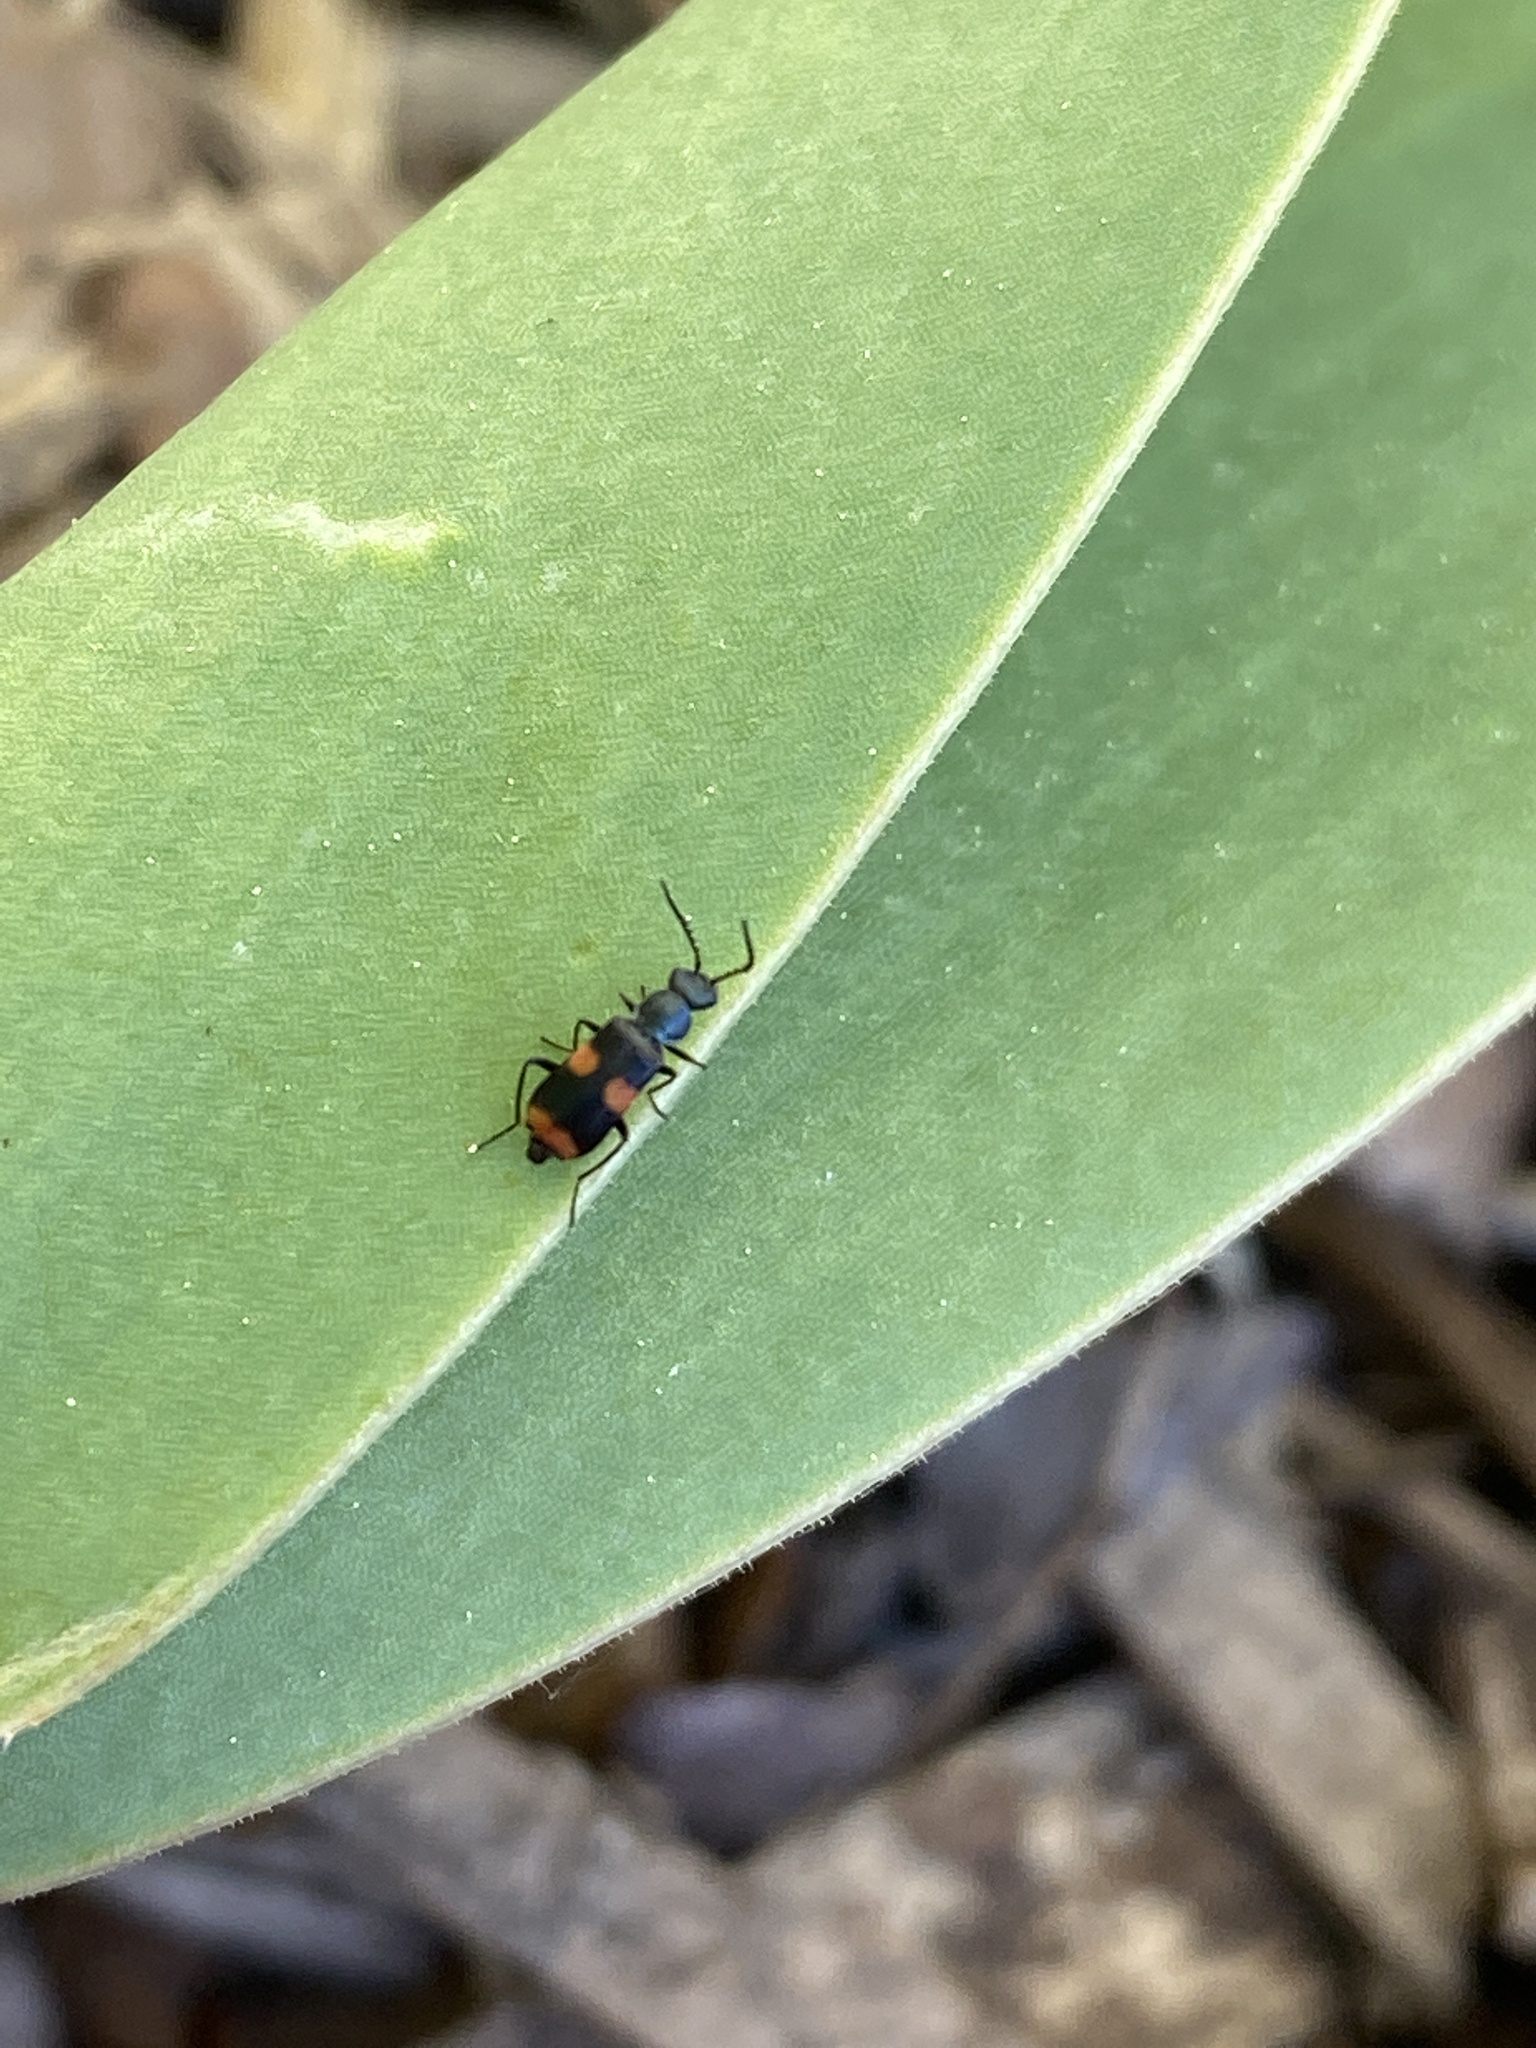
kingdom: Animalia
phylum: Arthropoda
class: Insecta
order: Coleoptera
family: Melyridae
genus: Anthocomus
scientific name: Anthocomus fasciatus
